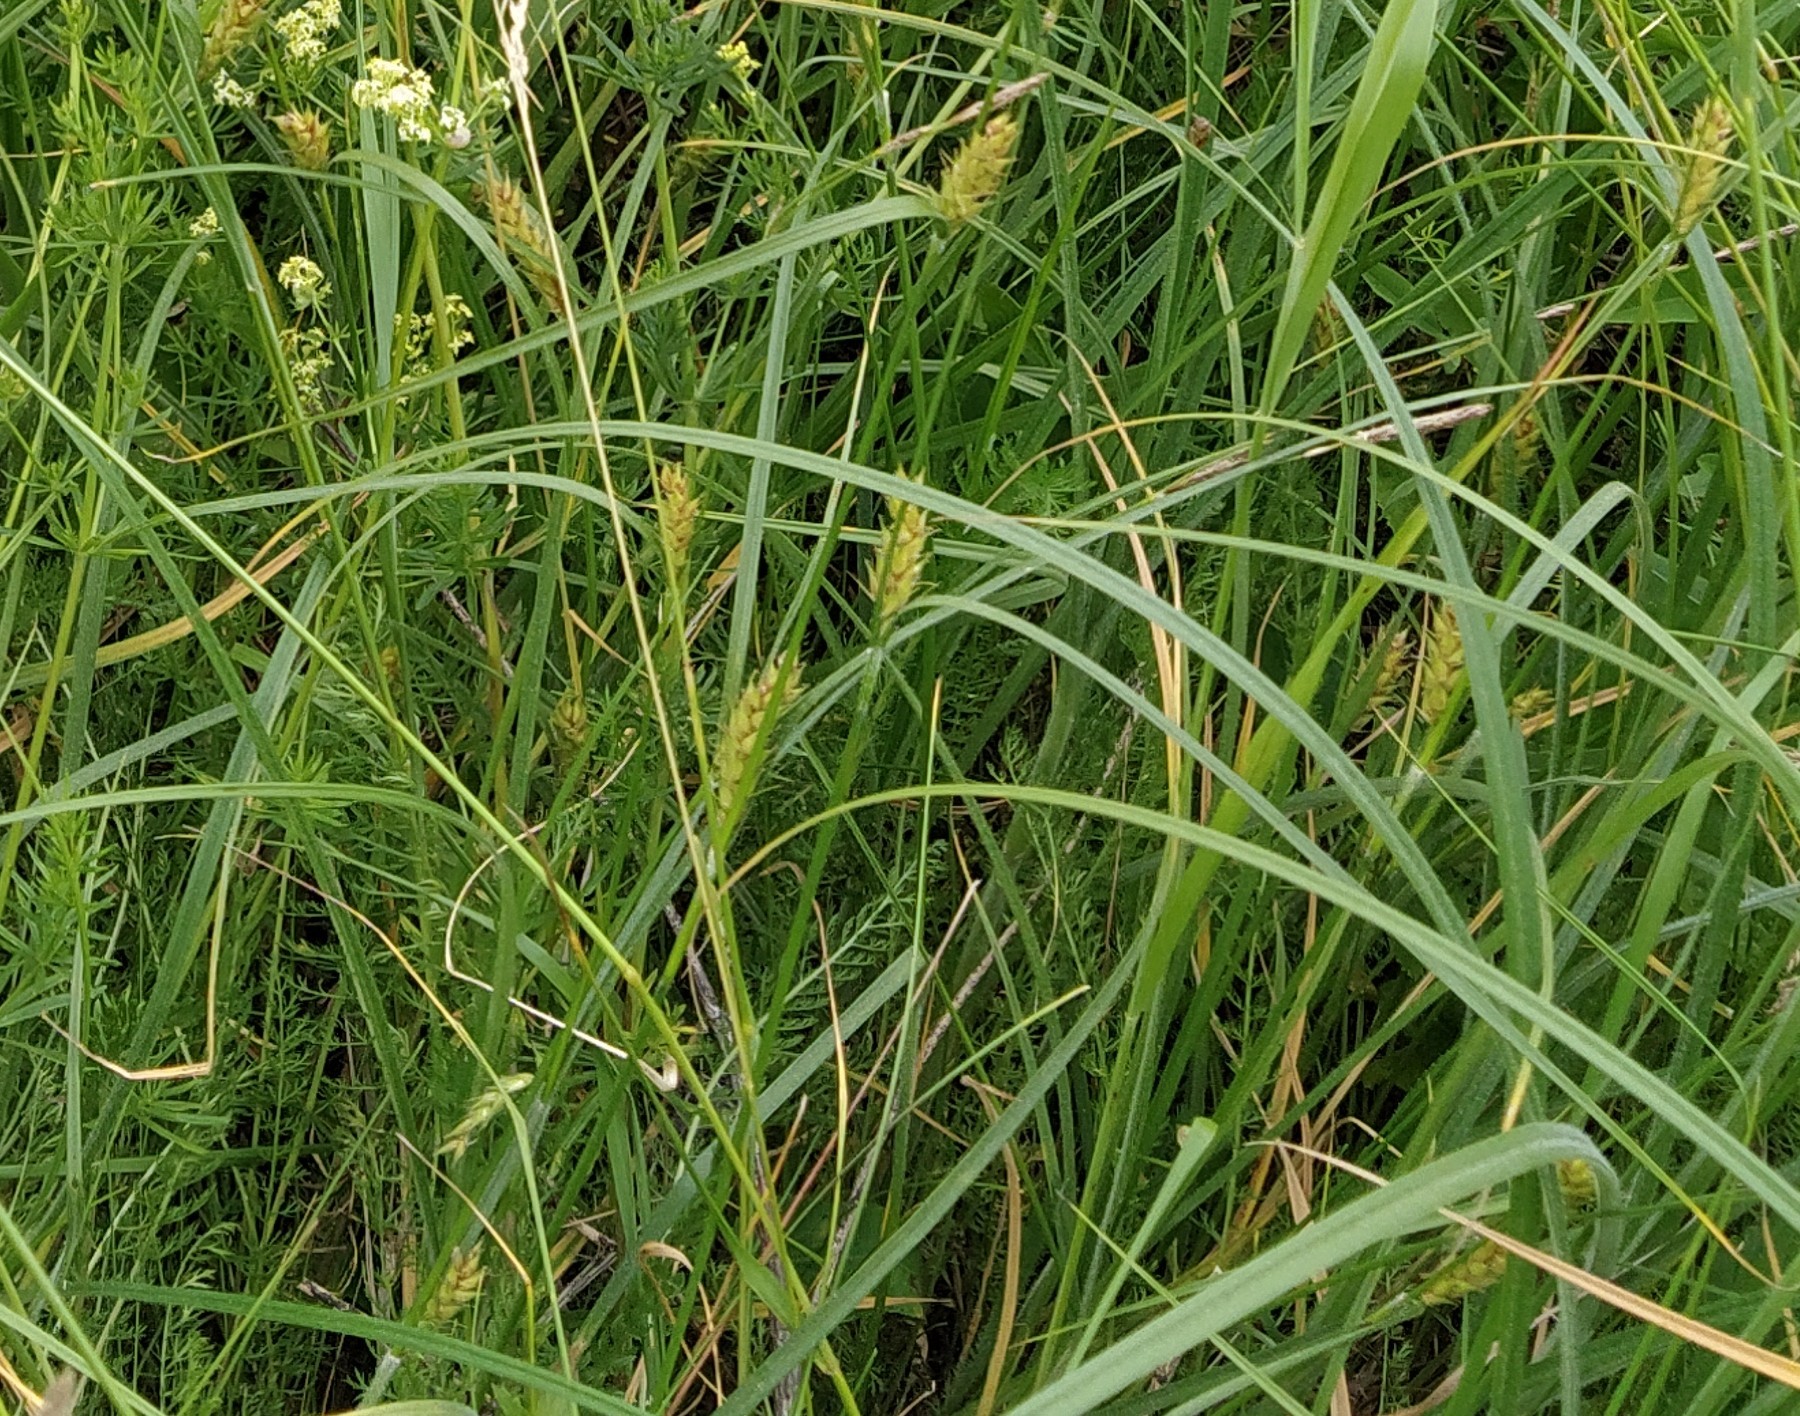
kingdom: Plantae
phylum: Tracheophyta
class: Liliopsida
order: Poales
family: Cyperaceae
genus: Carex
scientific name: Carex hirta
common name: Hairy sedge
